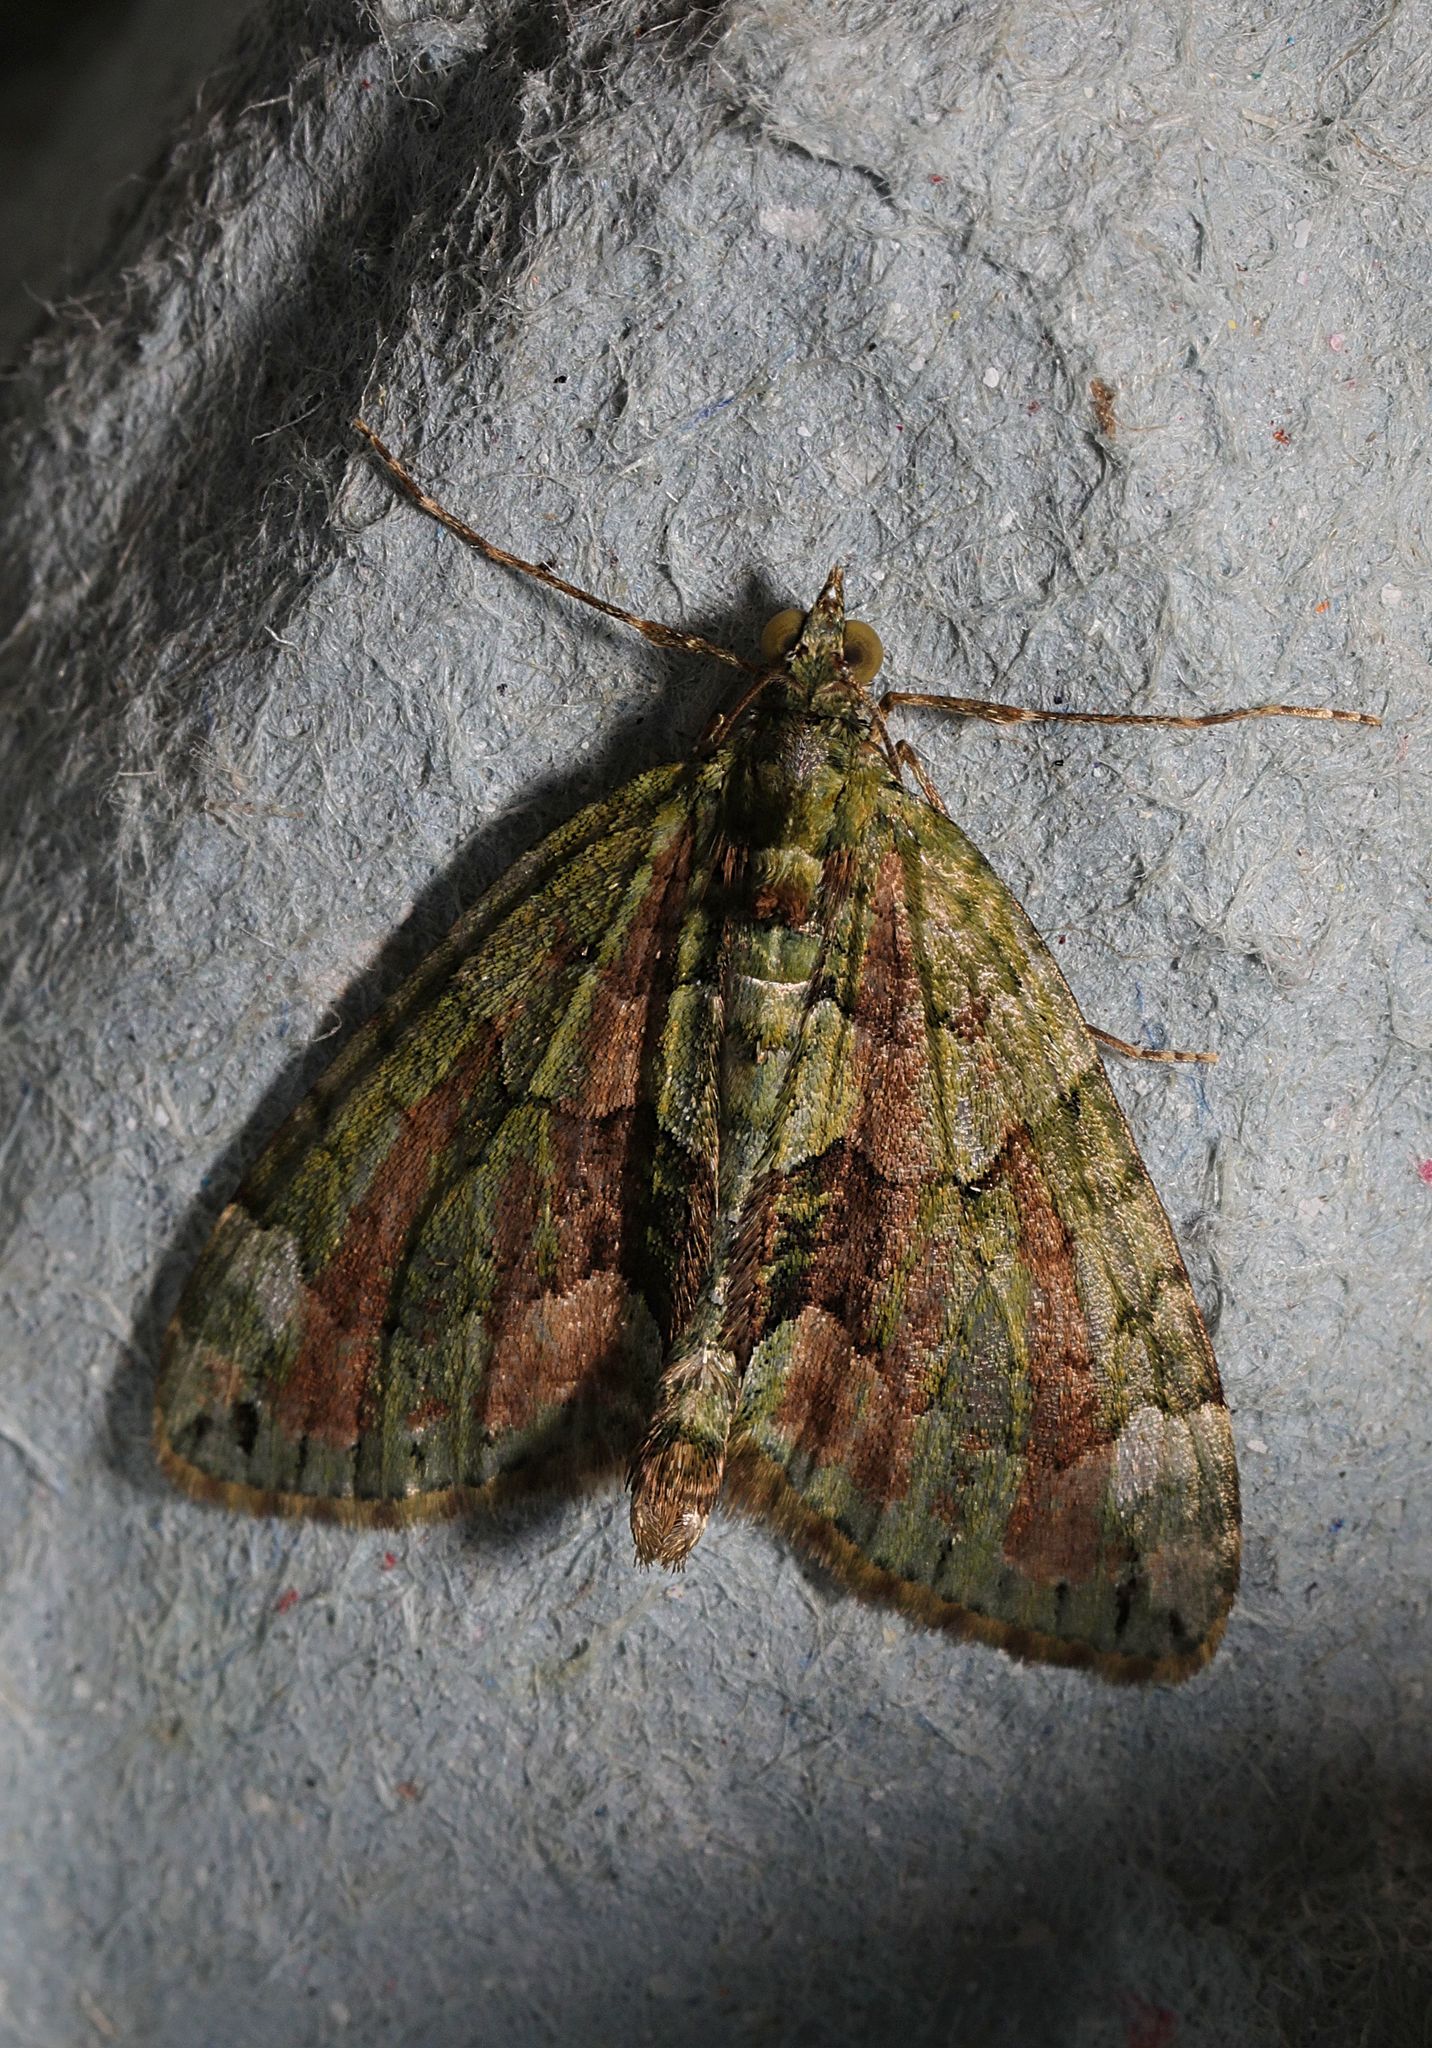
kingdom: Animalia
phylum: Arthropoda
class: Insecta
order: Lepidoptera
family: Geometridae
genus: Chloroclysta
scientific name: Chloroclysta siterata
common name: Red-green carpet
